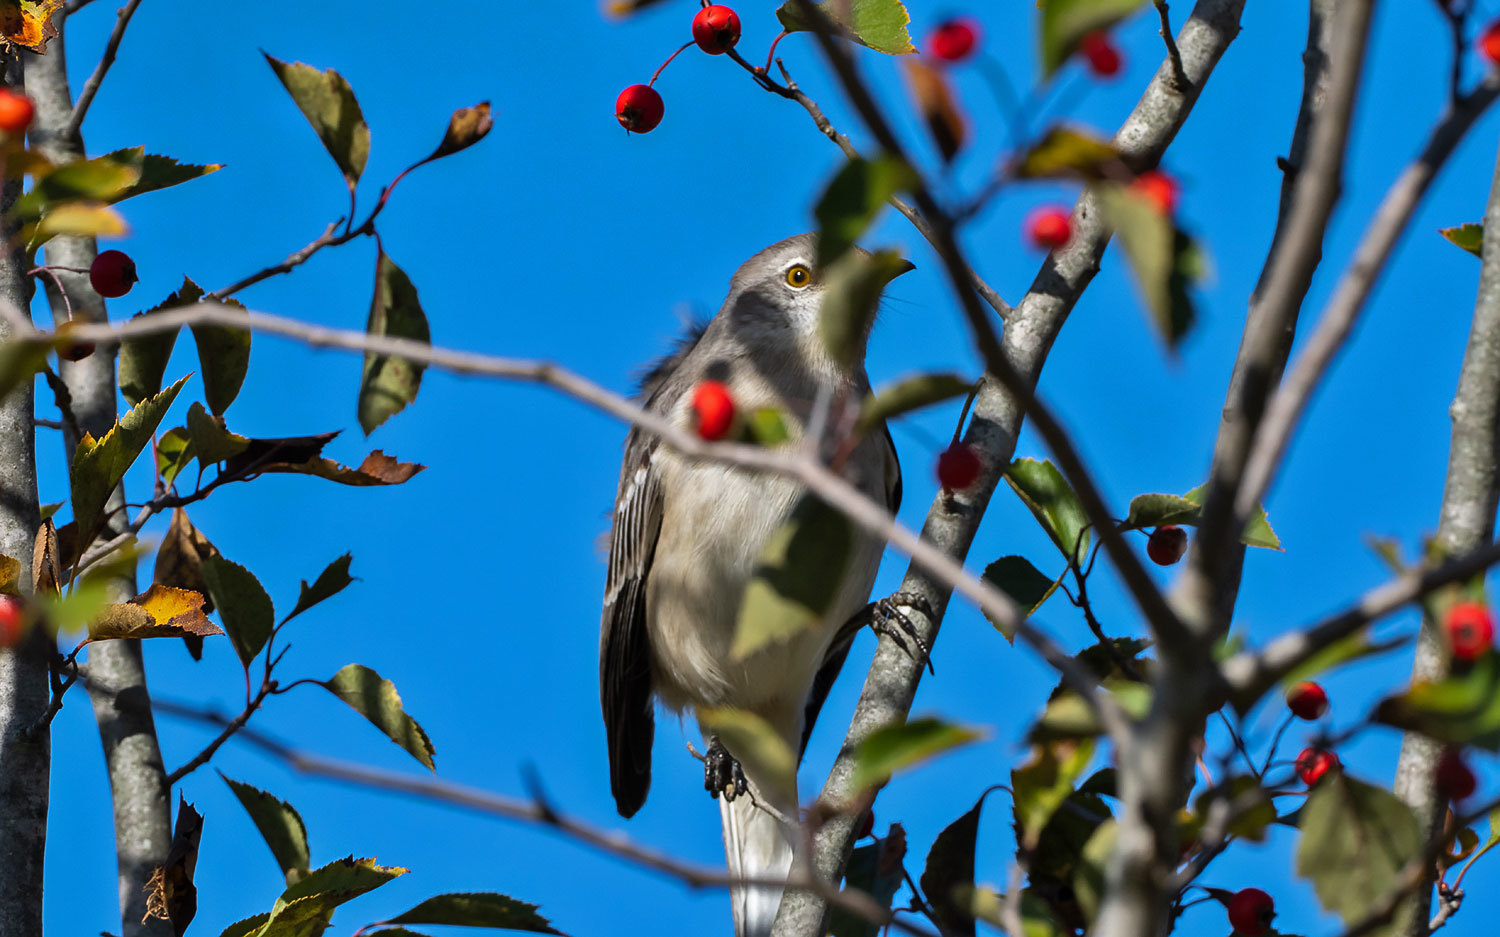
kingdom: Animalia
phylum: Chordata
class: Aves
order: Passeriformes
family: Mimidae
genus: Mimus
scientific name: Mimus polyglottos
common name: Northern mockingbird
